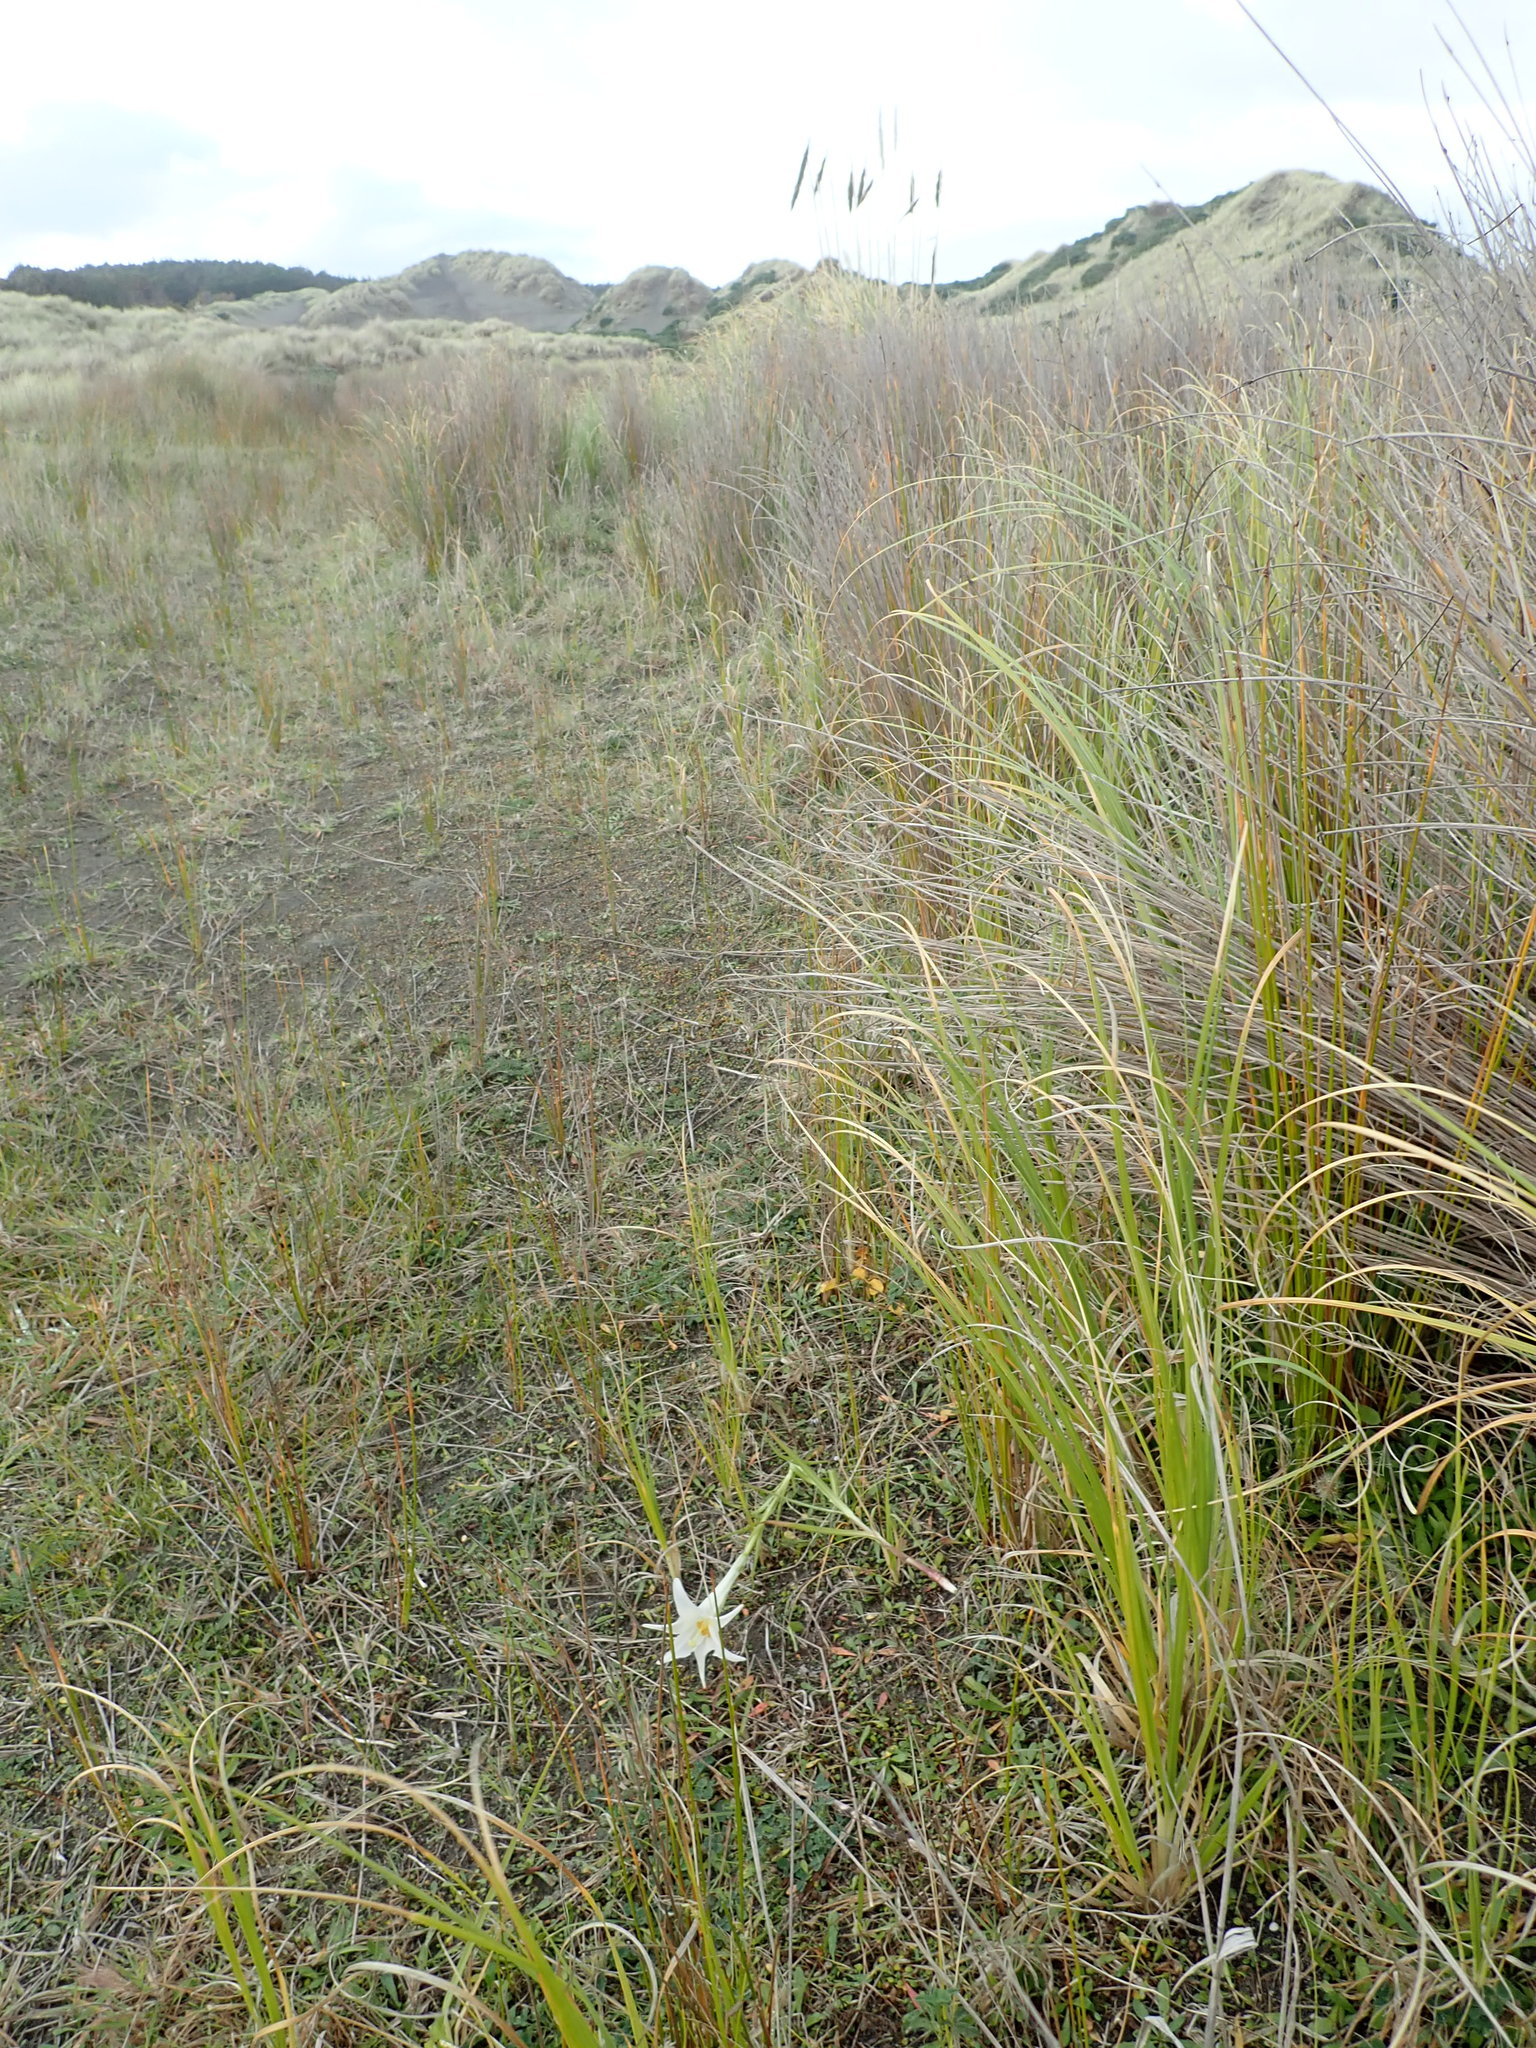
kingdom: Plantae
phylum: Tracheophyta
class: Liliopsida
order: Liliales
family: Liliaceae
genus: Lilium
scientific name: Lilium formosanum
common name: Formosa lily
